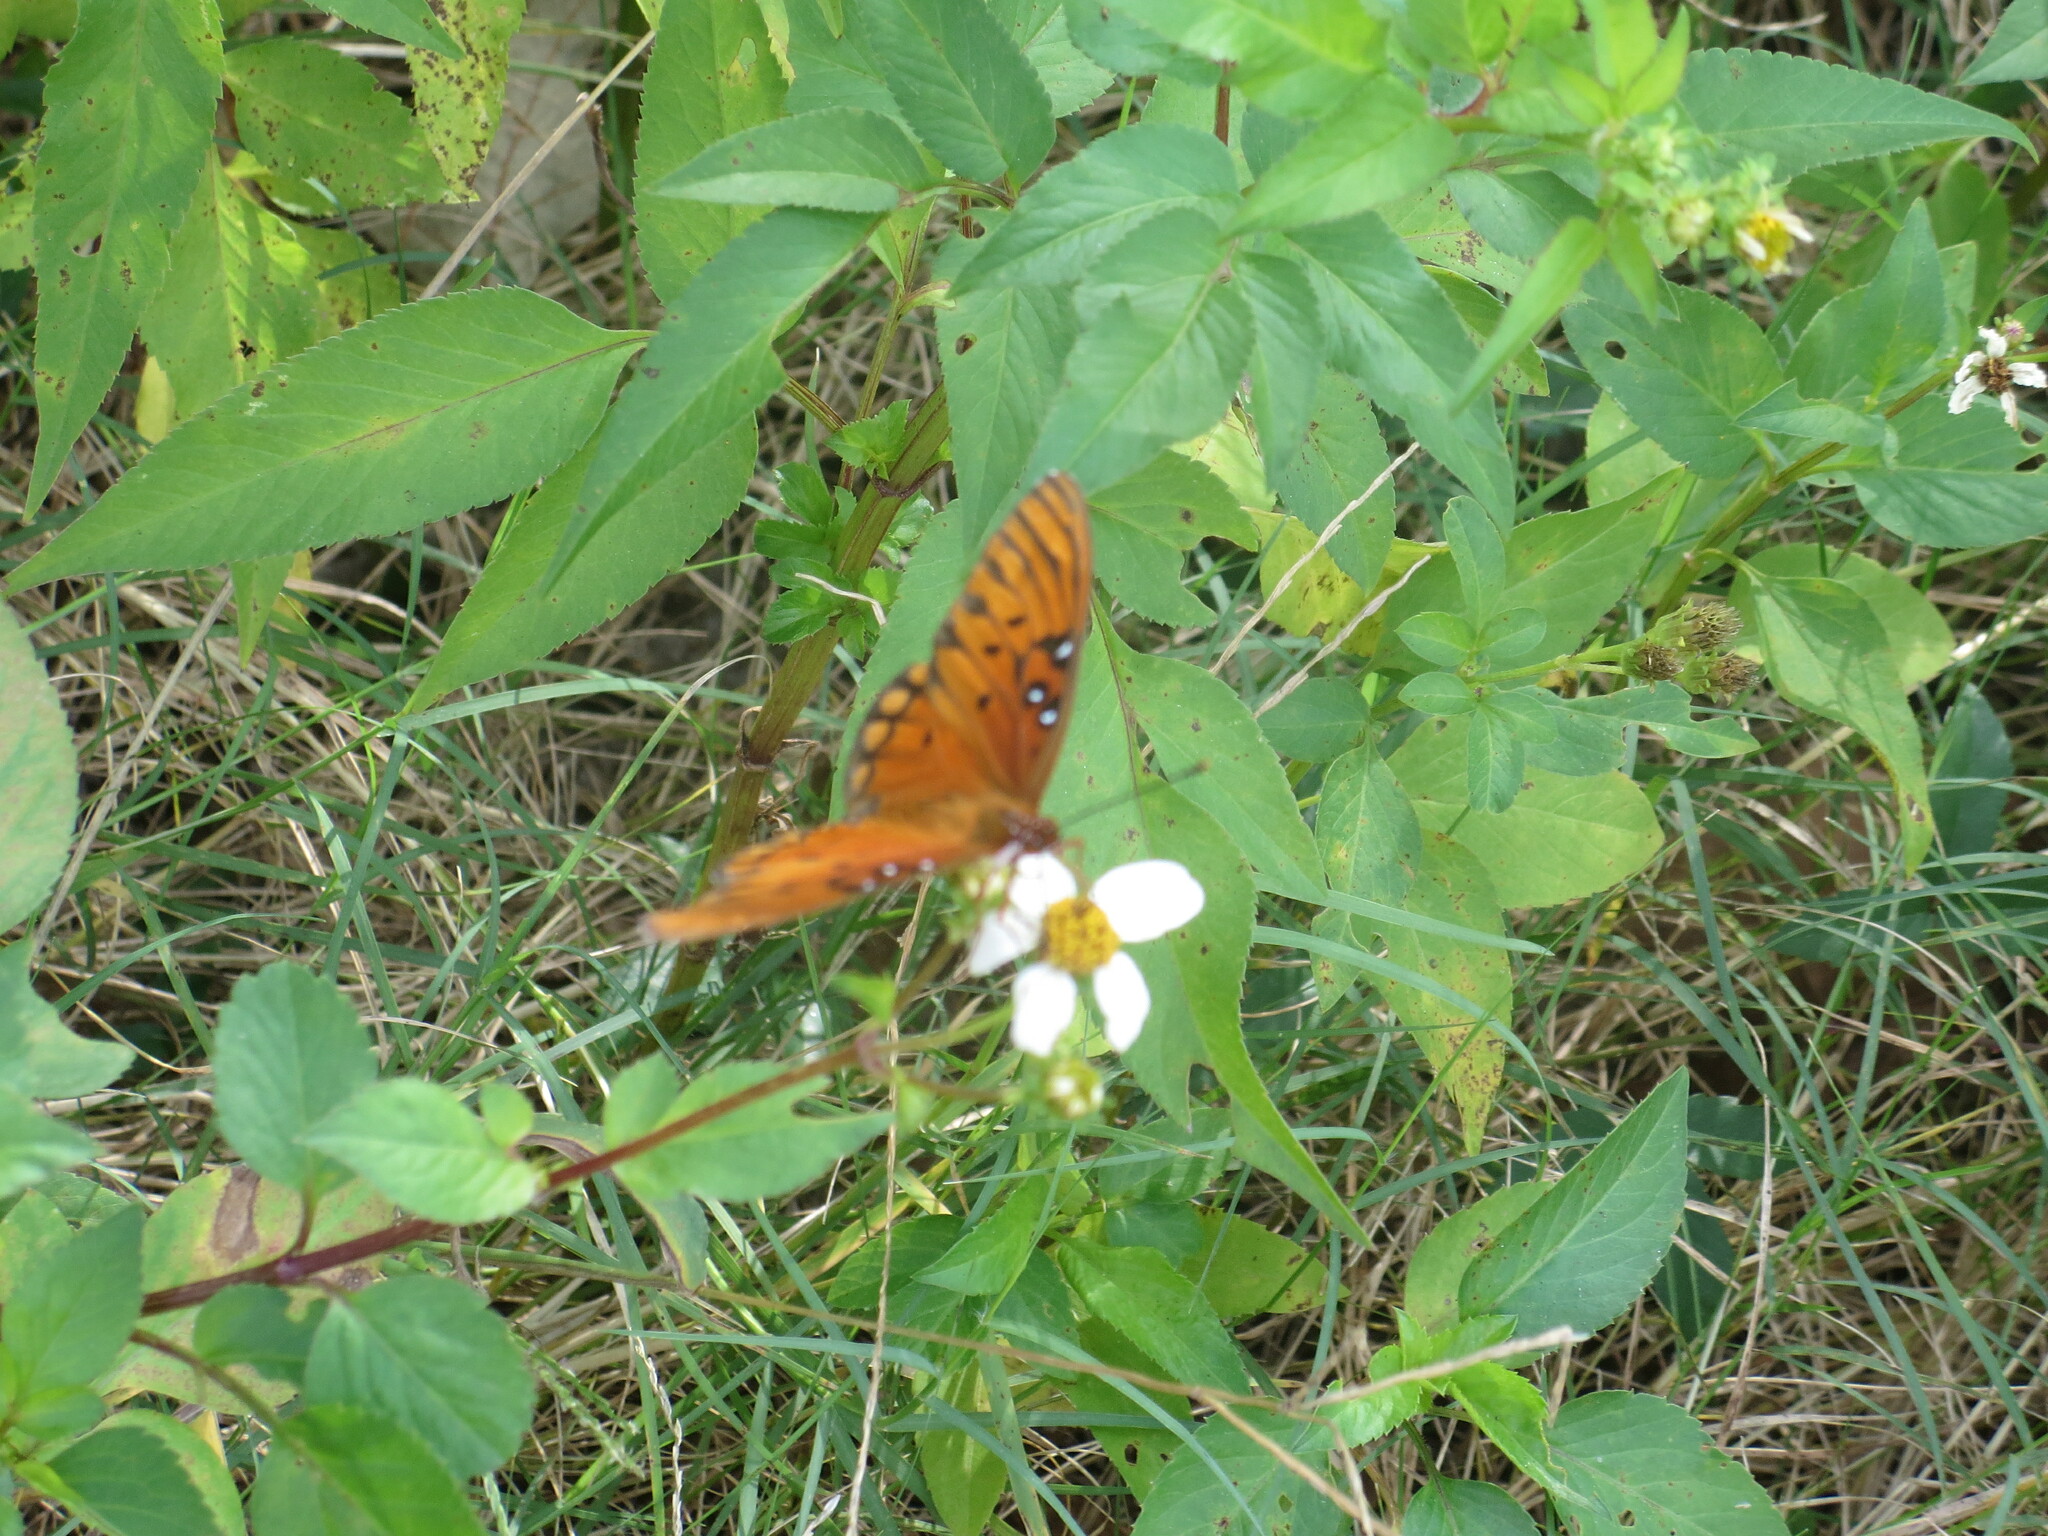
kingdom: Animalia
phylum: Arthropoda
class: Insecta
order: Lepidoptera
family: Nymphalidae
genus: Dione
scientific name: Dione vanillae
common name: Gulf fritillary
